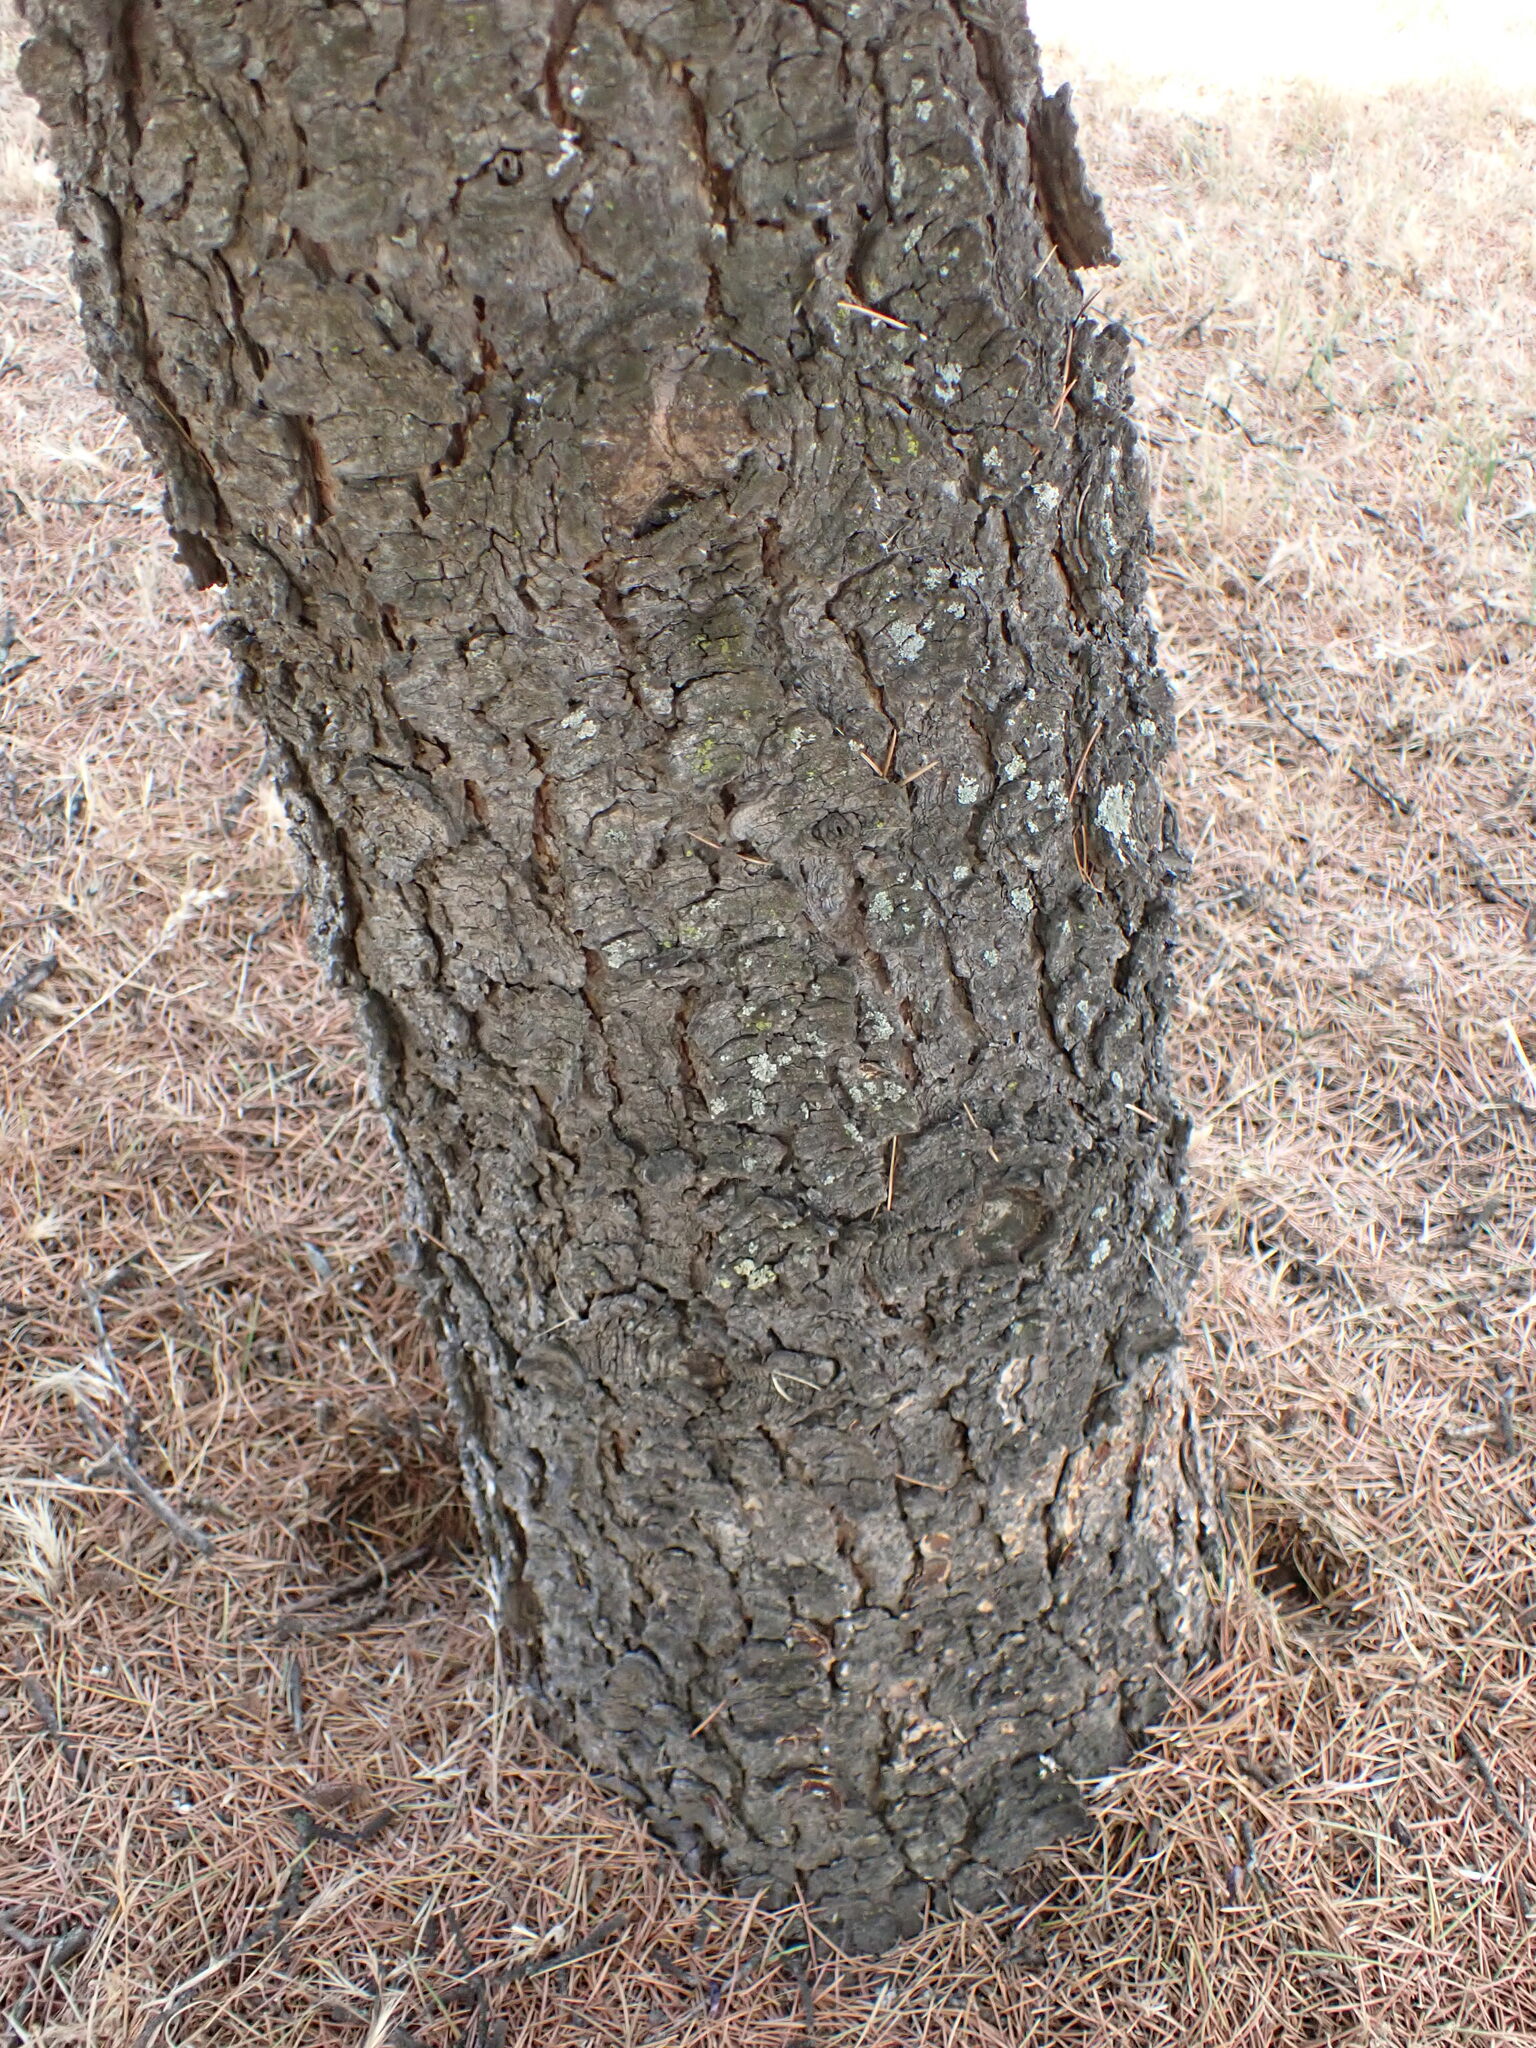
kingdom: Plantae
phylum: Tracheophyta
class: Pinopsida
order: Pinales
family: Pinaceae
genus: Cedrus
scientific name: Cedrus deodara
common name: Deodar
